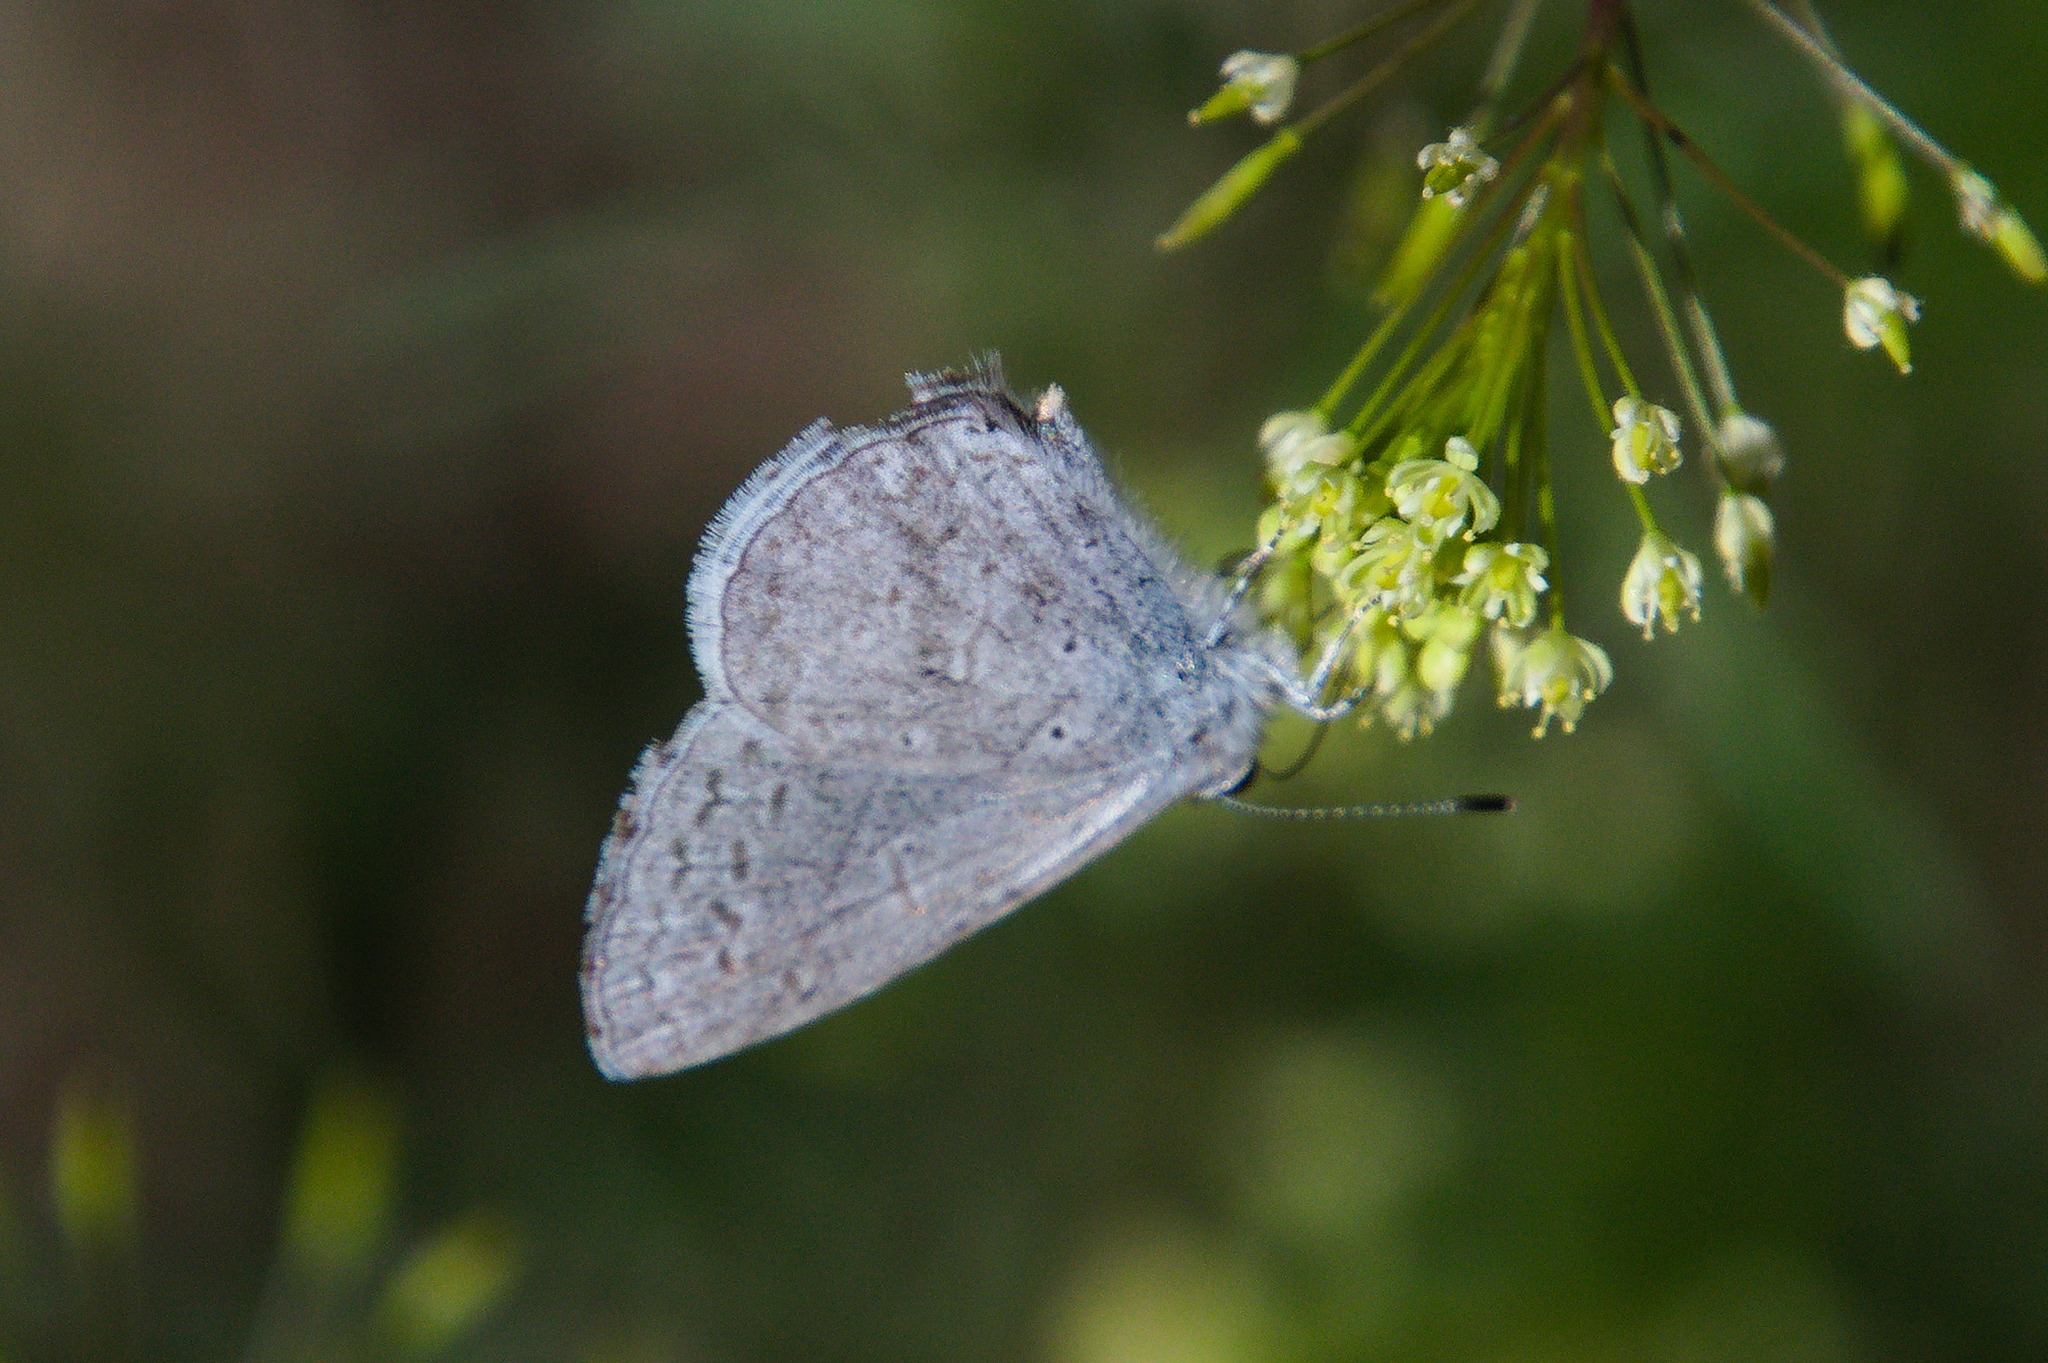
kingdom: Animalia
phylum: Arthropoda
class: Insecta
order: Lepidoptera
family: Lycaenidae
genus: Celastrina
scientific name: Celastrina ladon
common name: Spring azure
